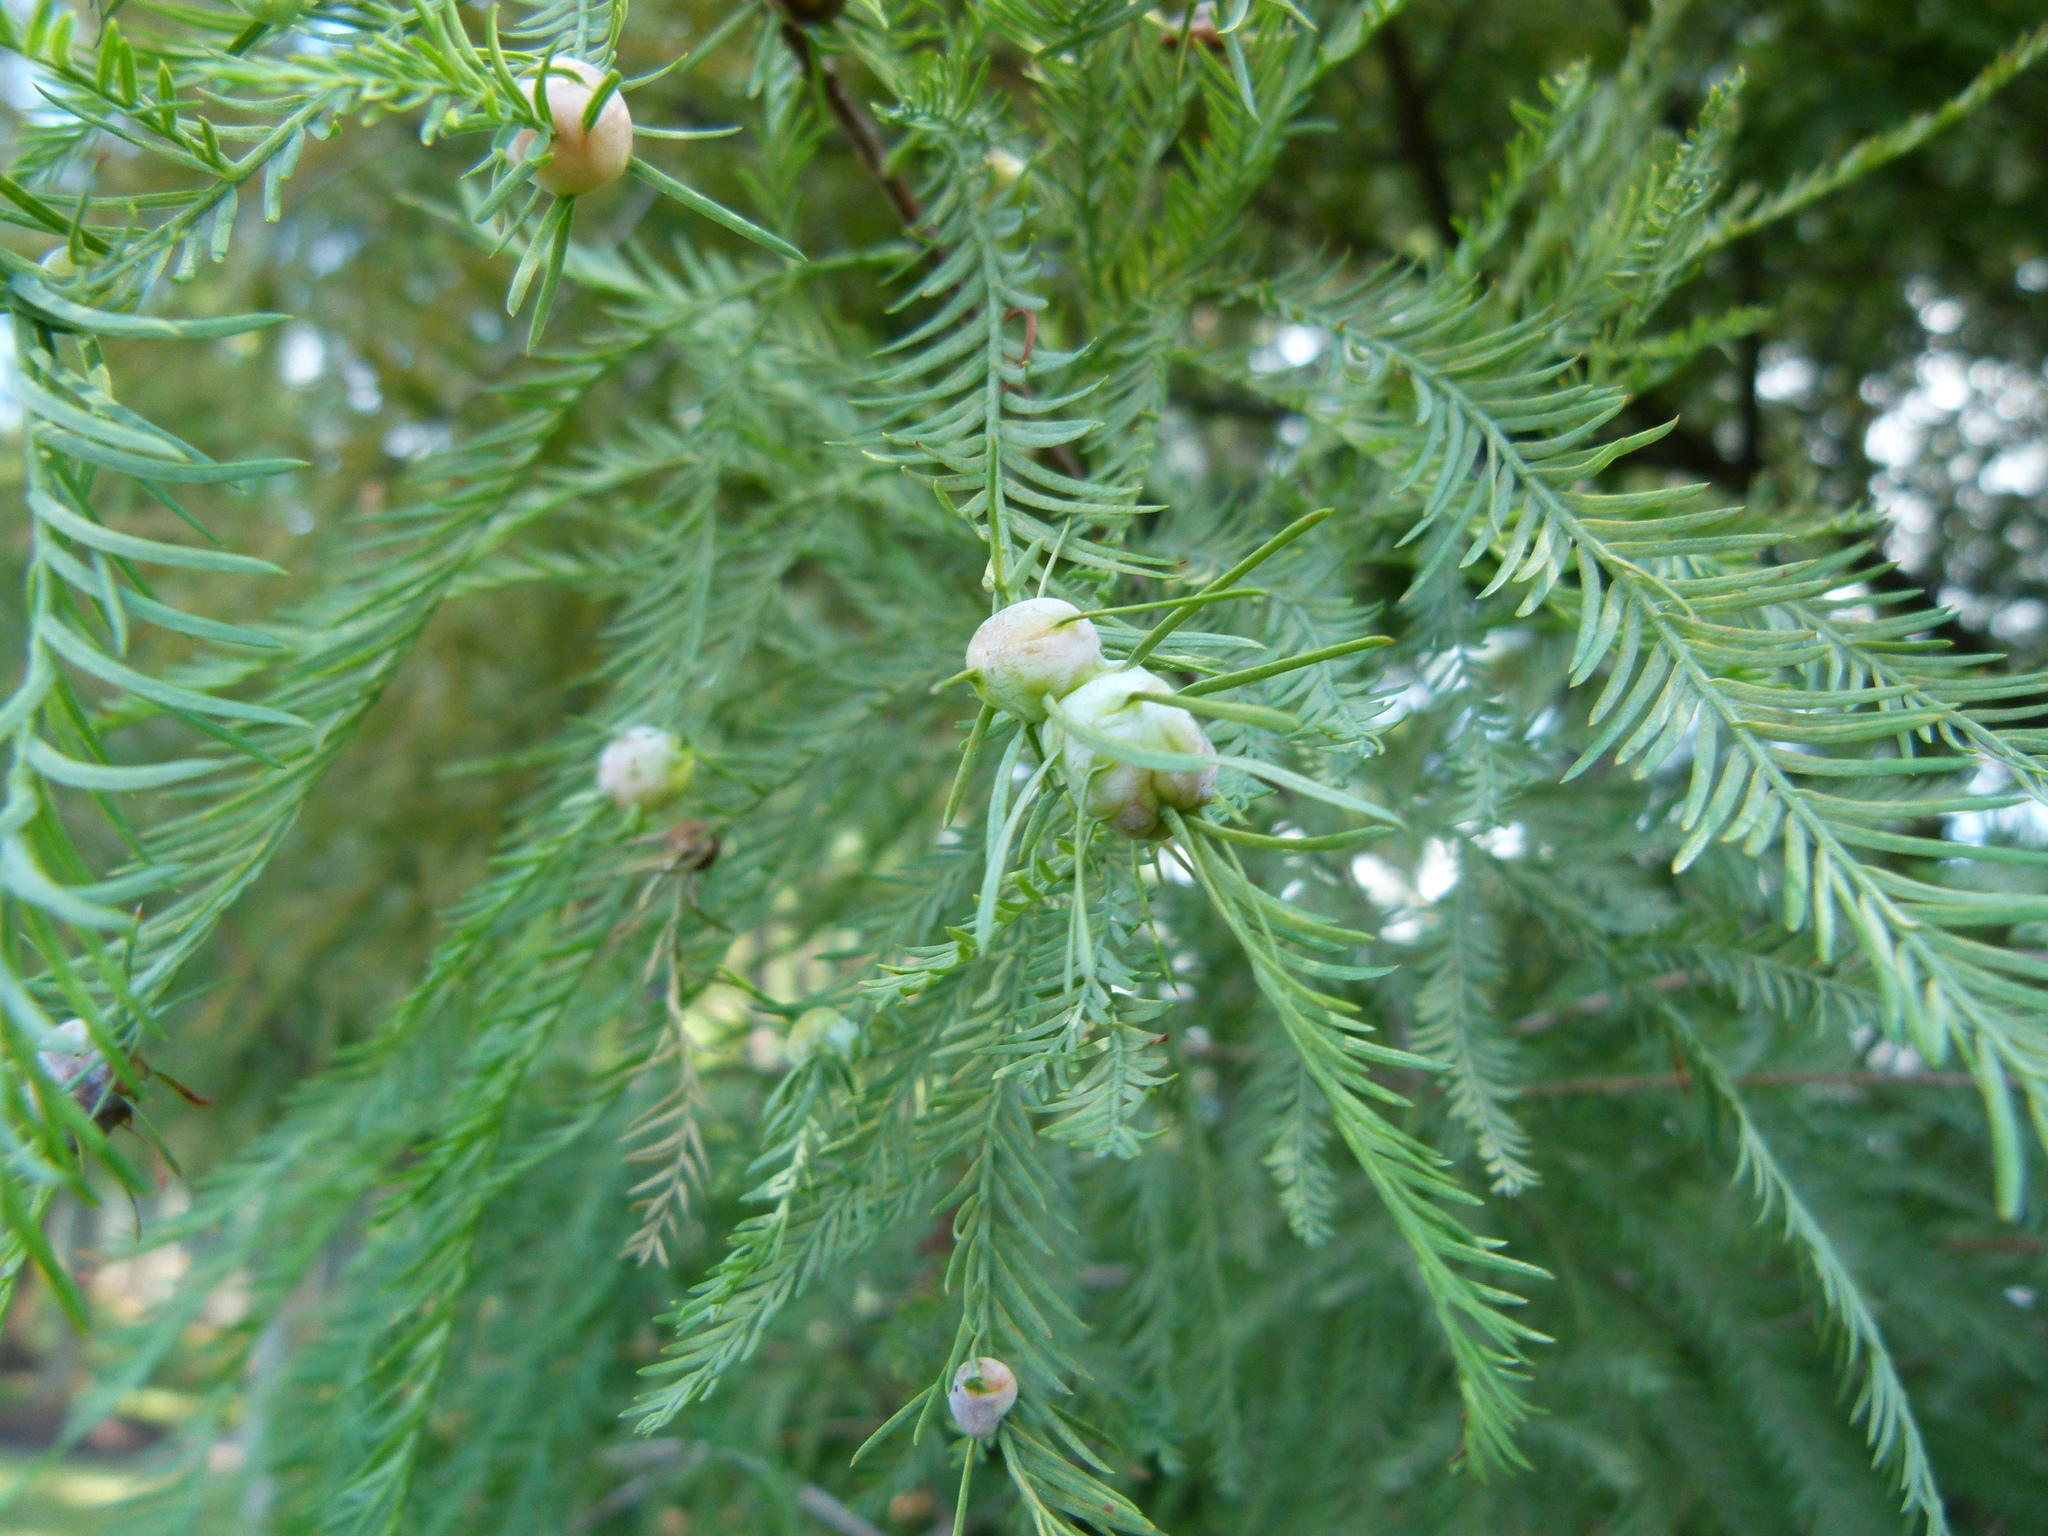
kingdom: Animalia
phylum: Arthropoda
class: Insecta
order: Diptera
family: Cecidomyiidae
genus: Taxodiomyia
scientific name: Taxodiomyia cupressiananassa
